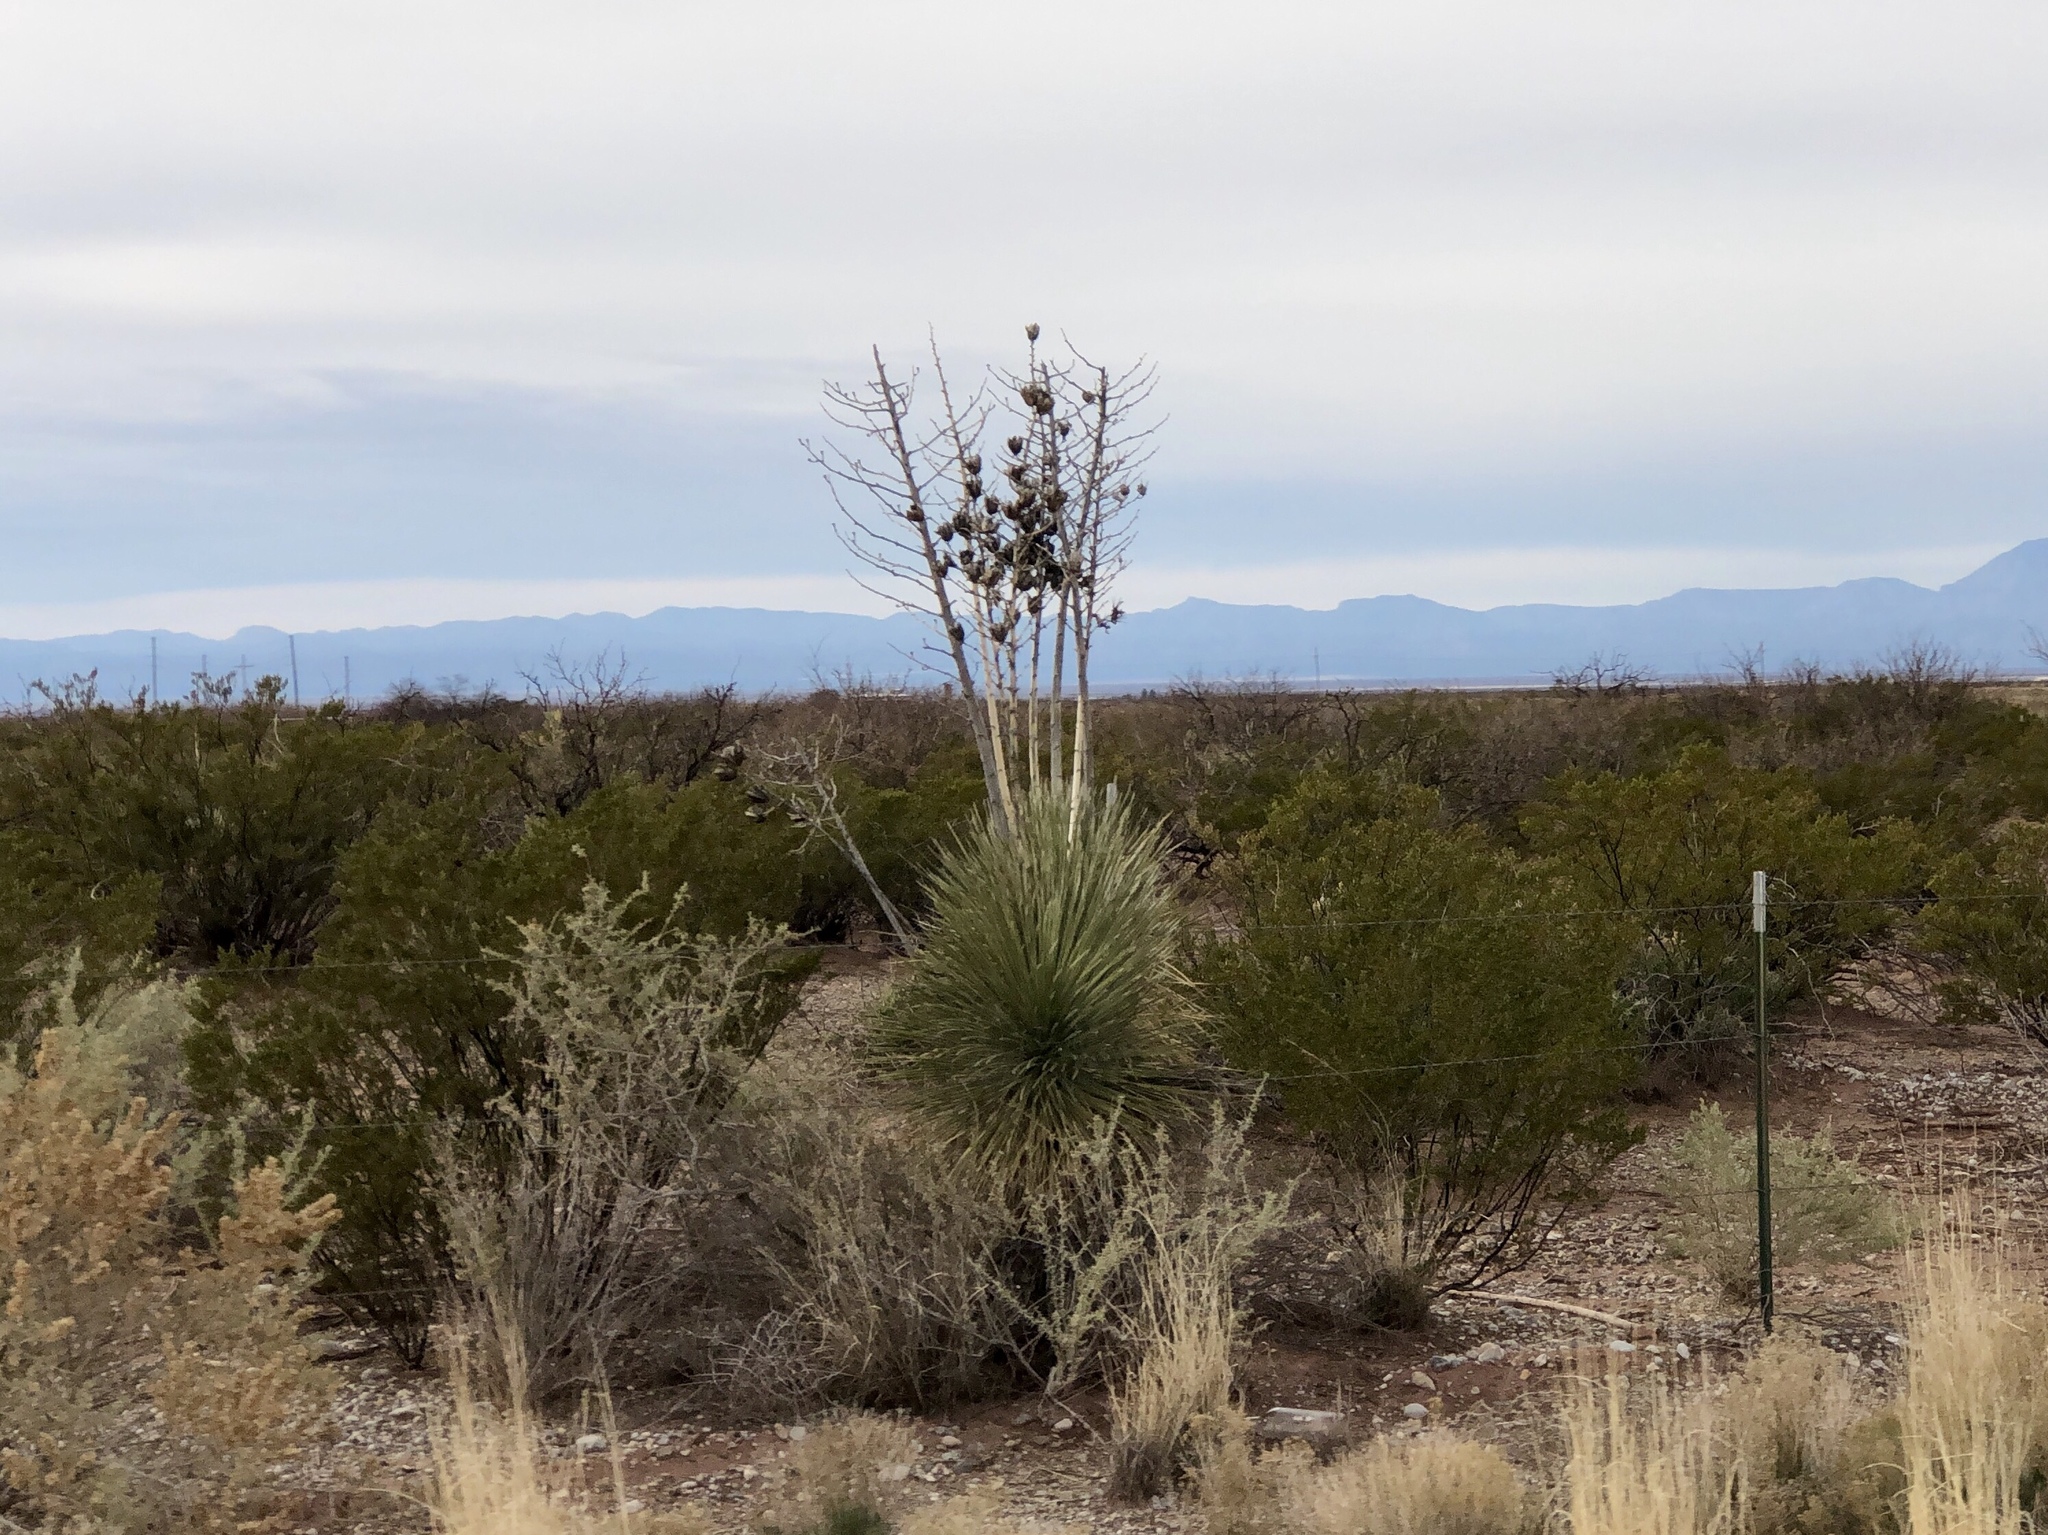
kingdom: Plantae
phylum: Tracheophyta
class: Liliopsida
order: Asparagales
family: Asparagaceae
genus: Yucca
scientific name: Yucca elata
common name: Palmella
